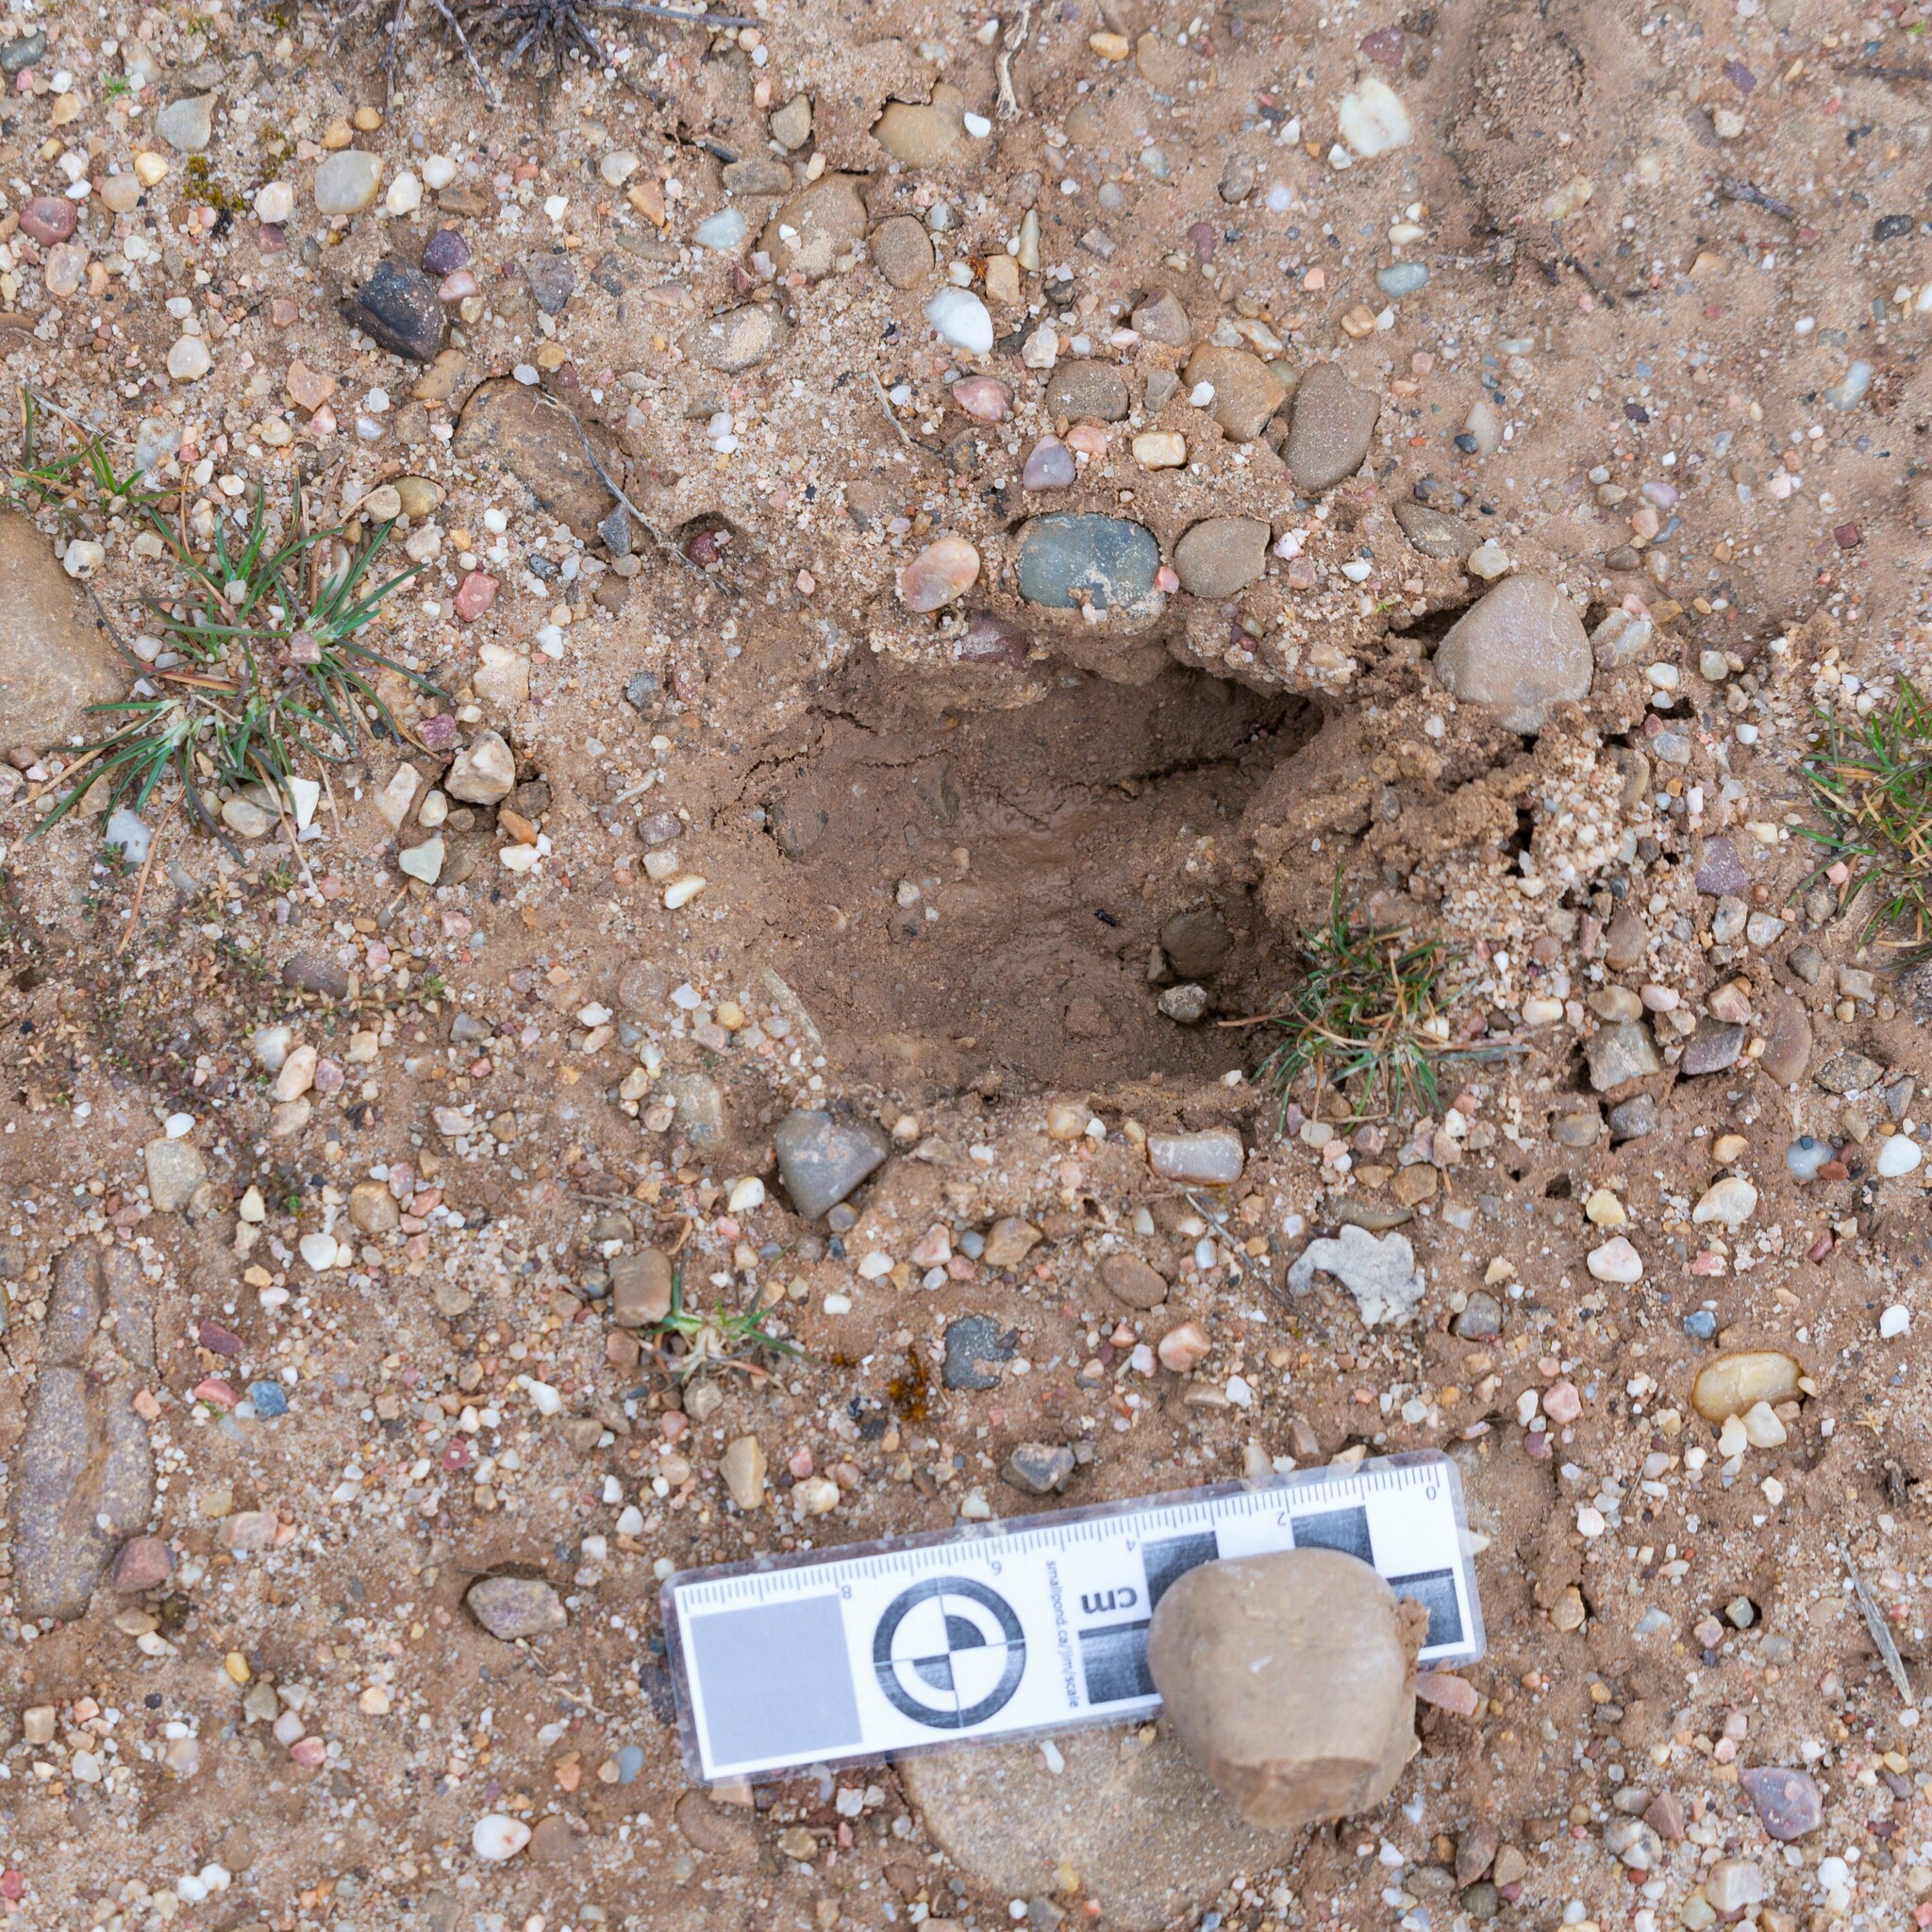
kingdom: Animalia
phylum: Chordata
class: Mammalia
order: Artiodactyla
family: Suidae
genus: Sus
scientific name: Sus scrofa
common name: Wild boar
